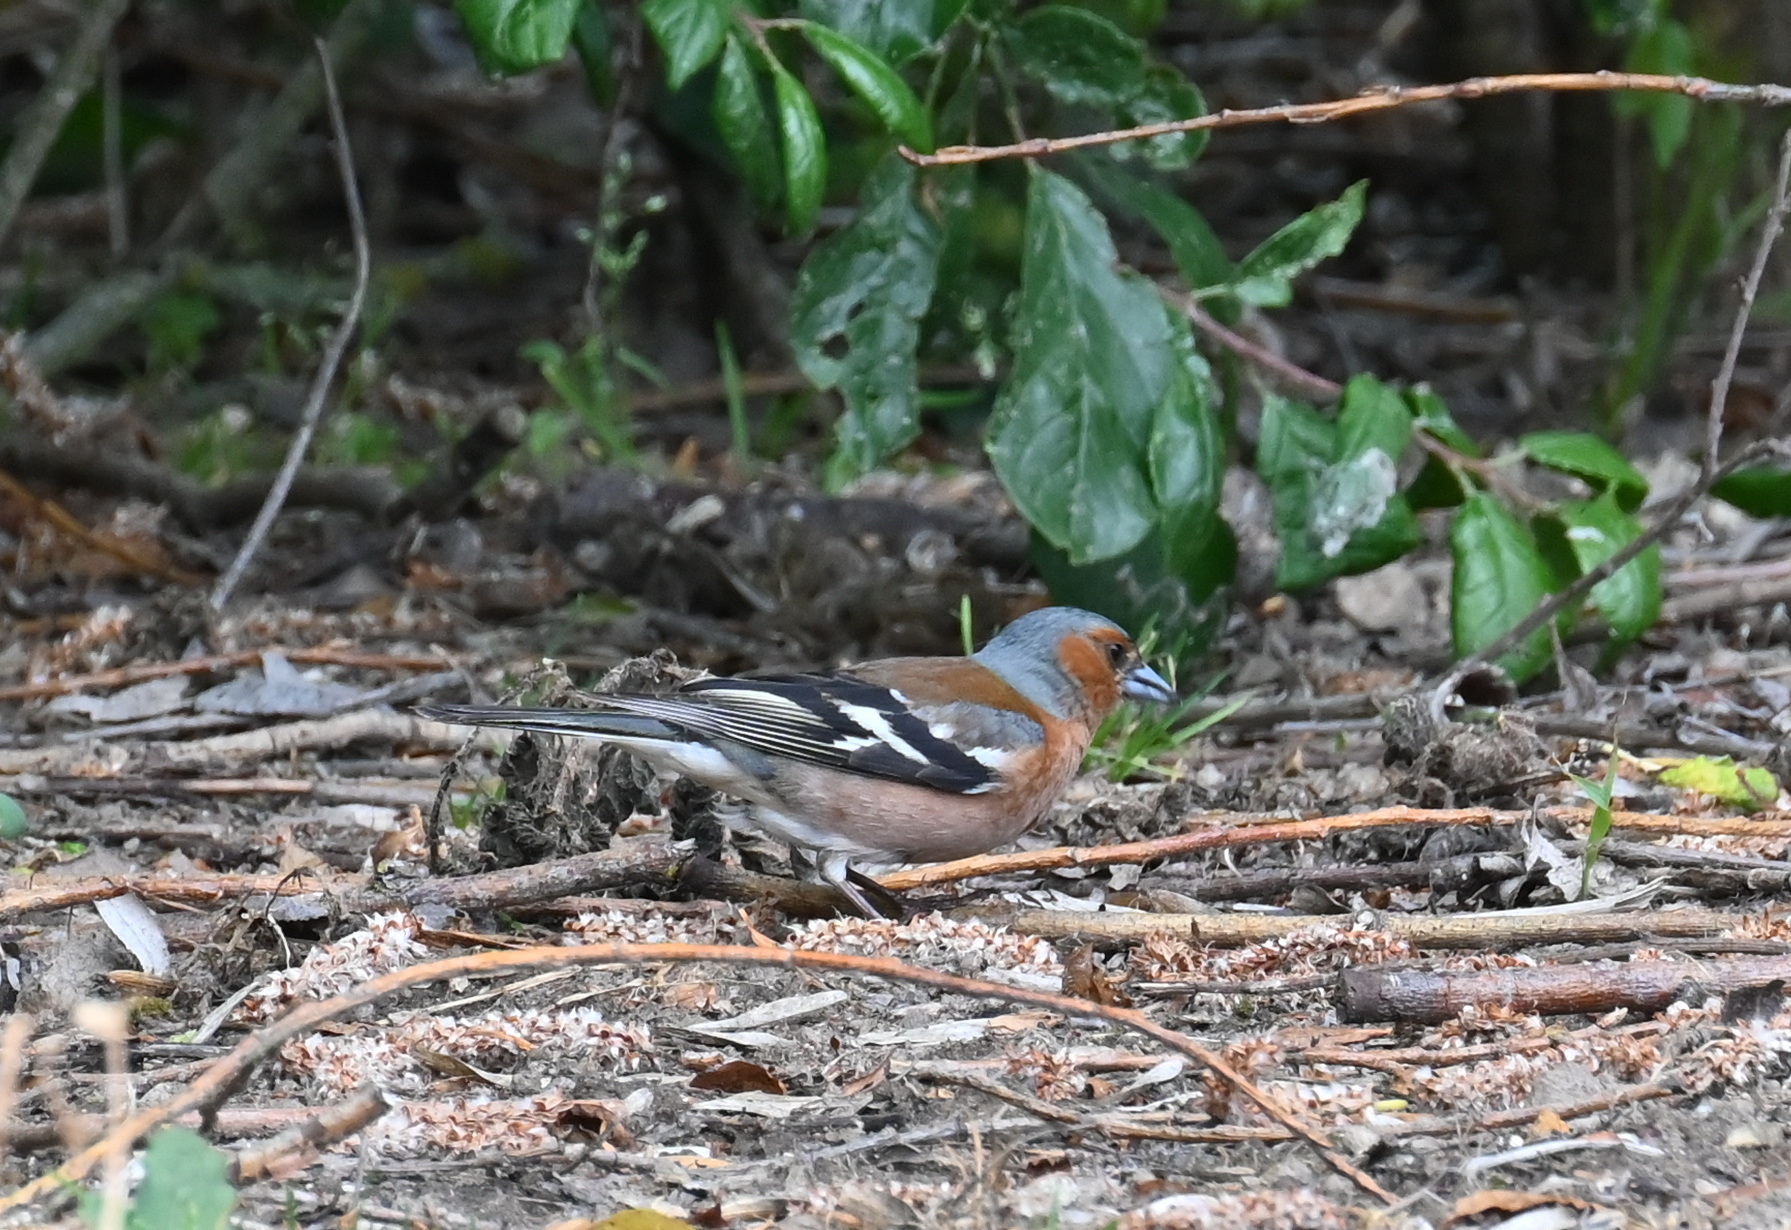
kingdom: Animalia
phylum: Chordata
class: Aves
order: Passeriformes
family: Fringillidae
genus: Fringilla
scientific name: Fringilla coelebs
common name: Common chaffinch
